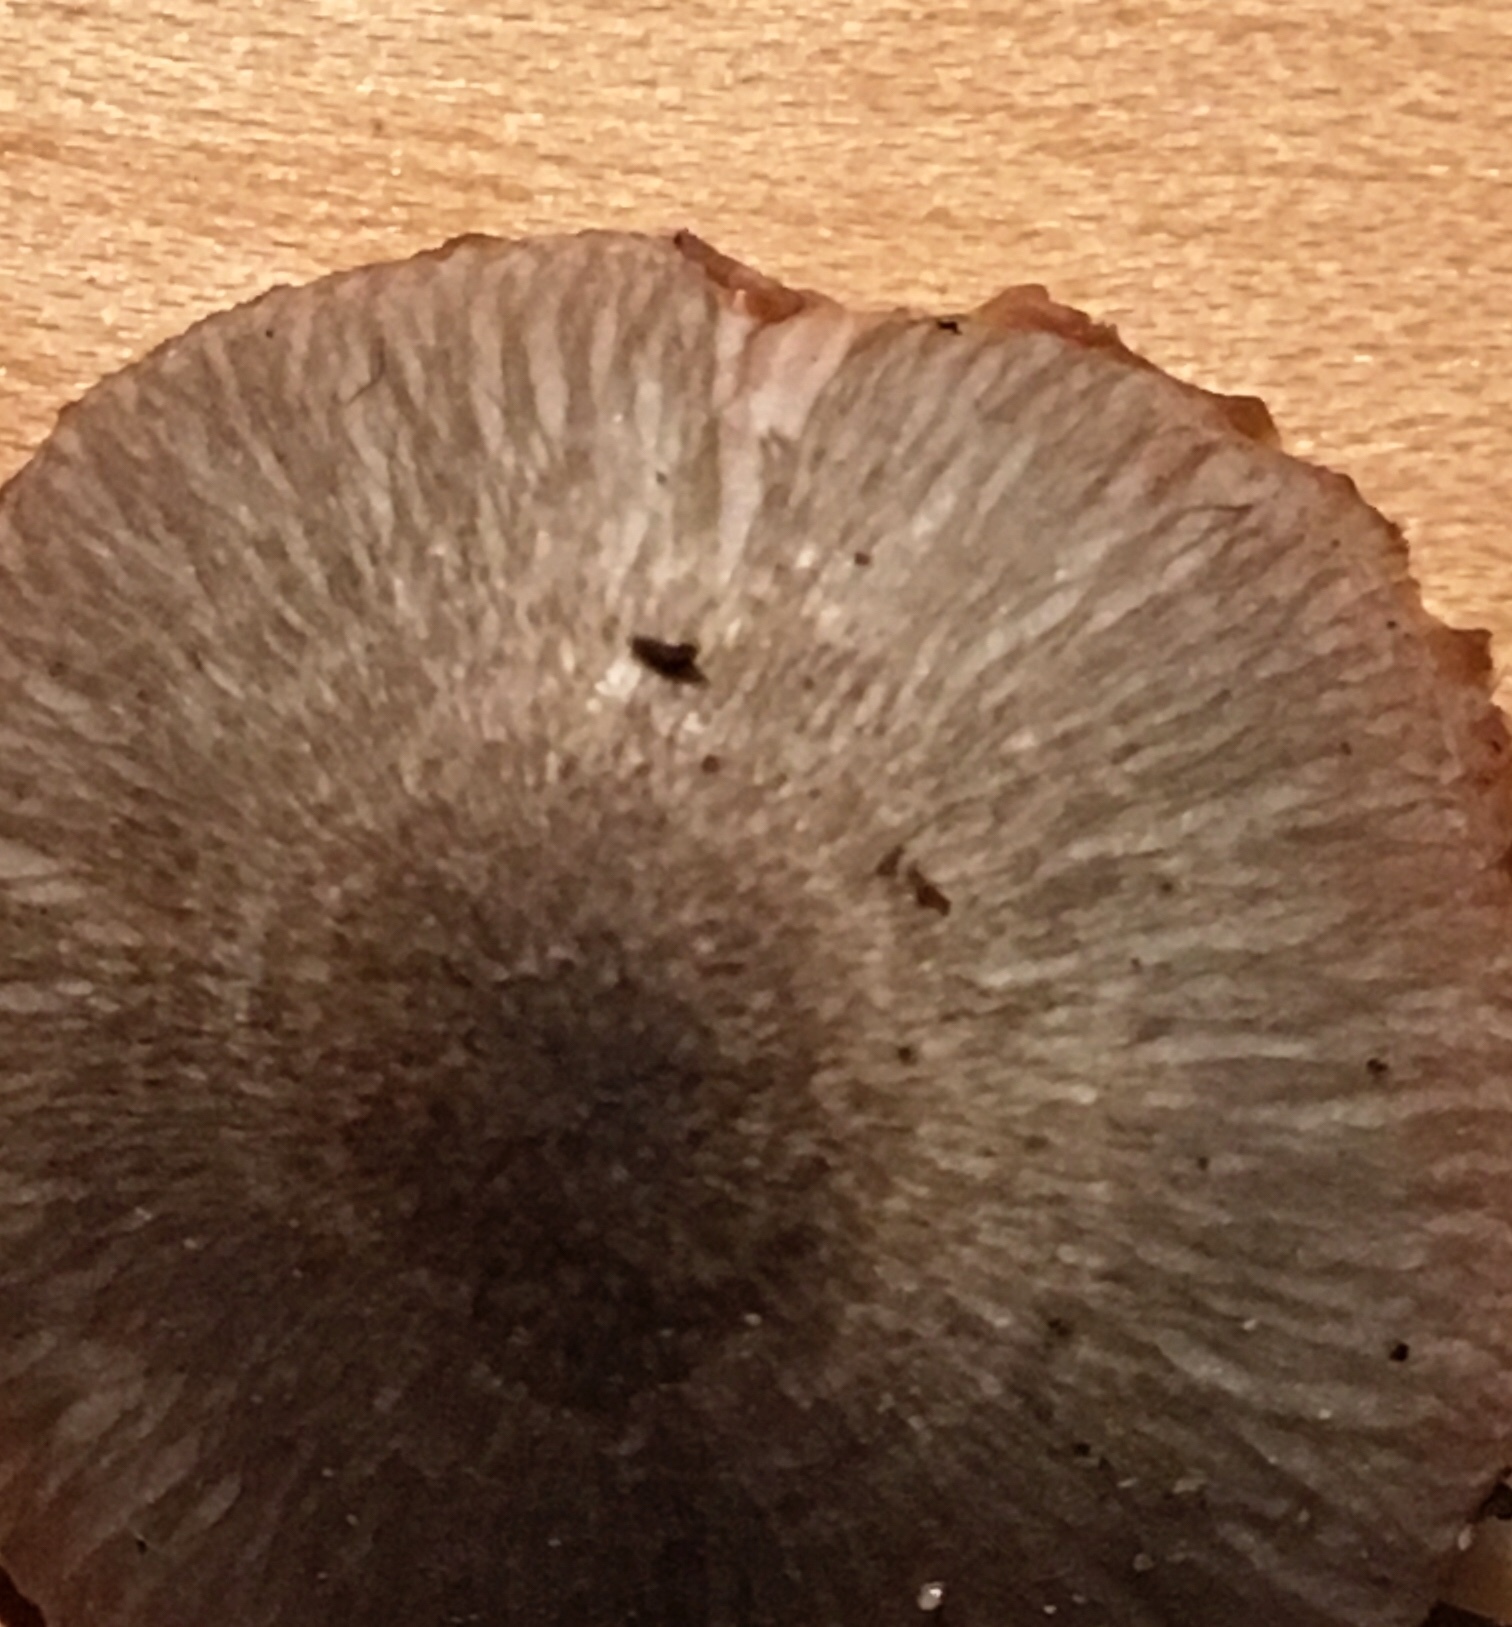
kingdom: Fungi
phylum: Basidiomycota
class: Agaricomycetes
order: Agaricales
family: Pluteaceae
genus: Pluteus
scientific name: Pluteus longistriatus
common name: Pleated pluteus
